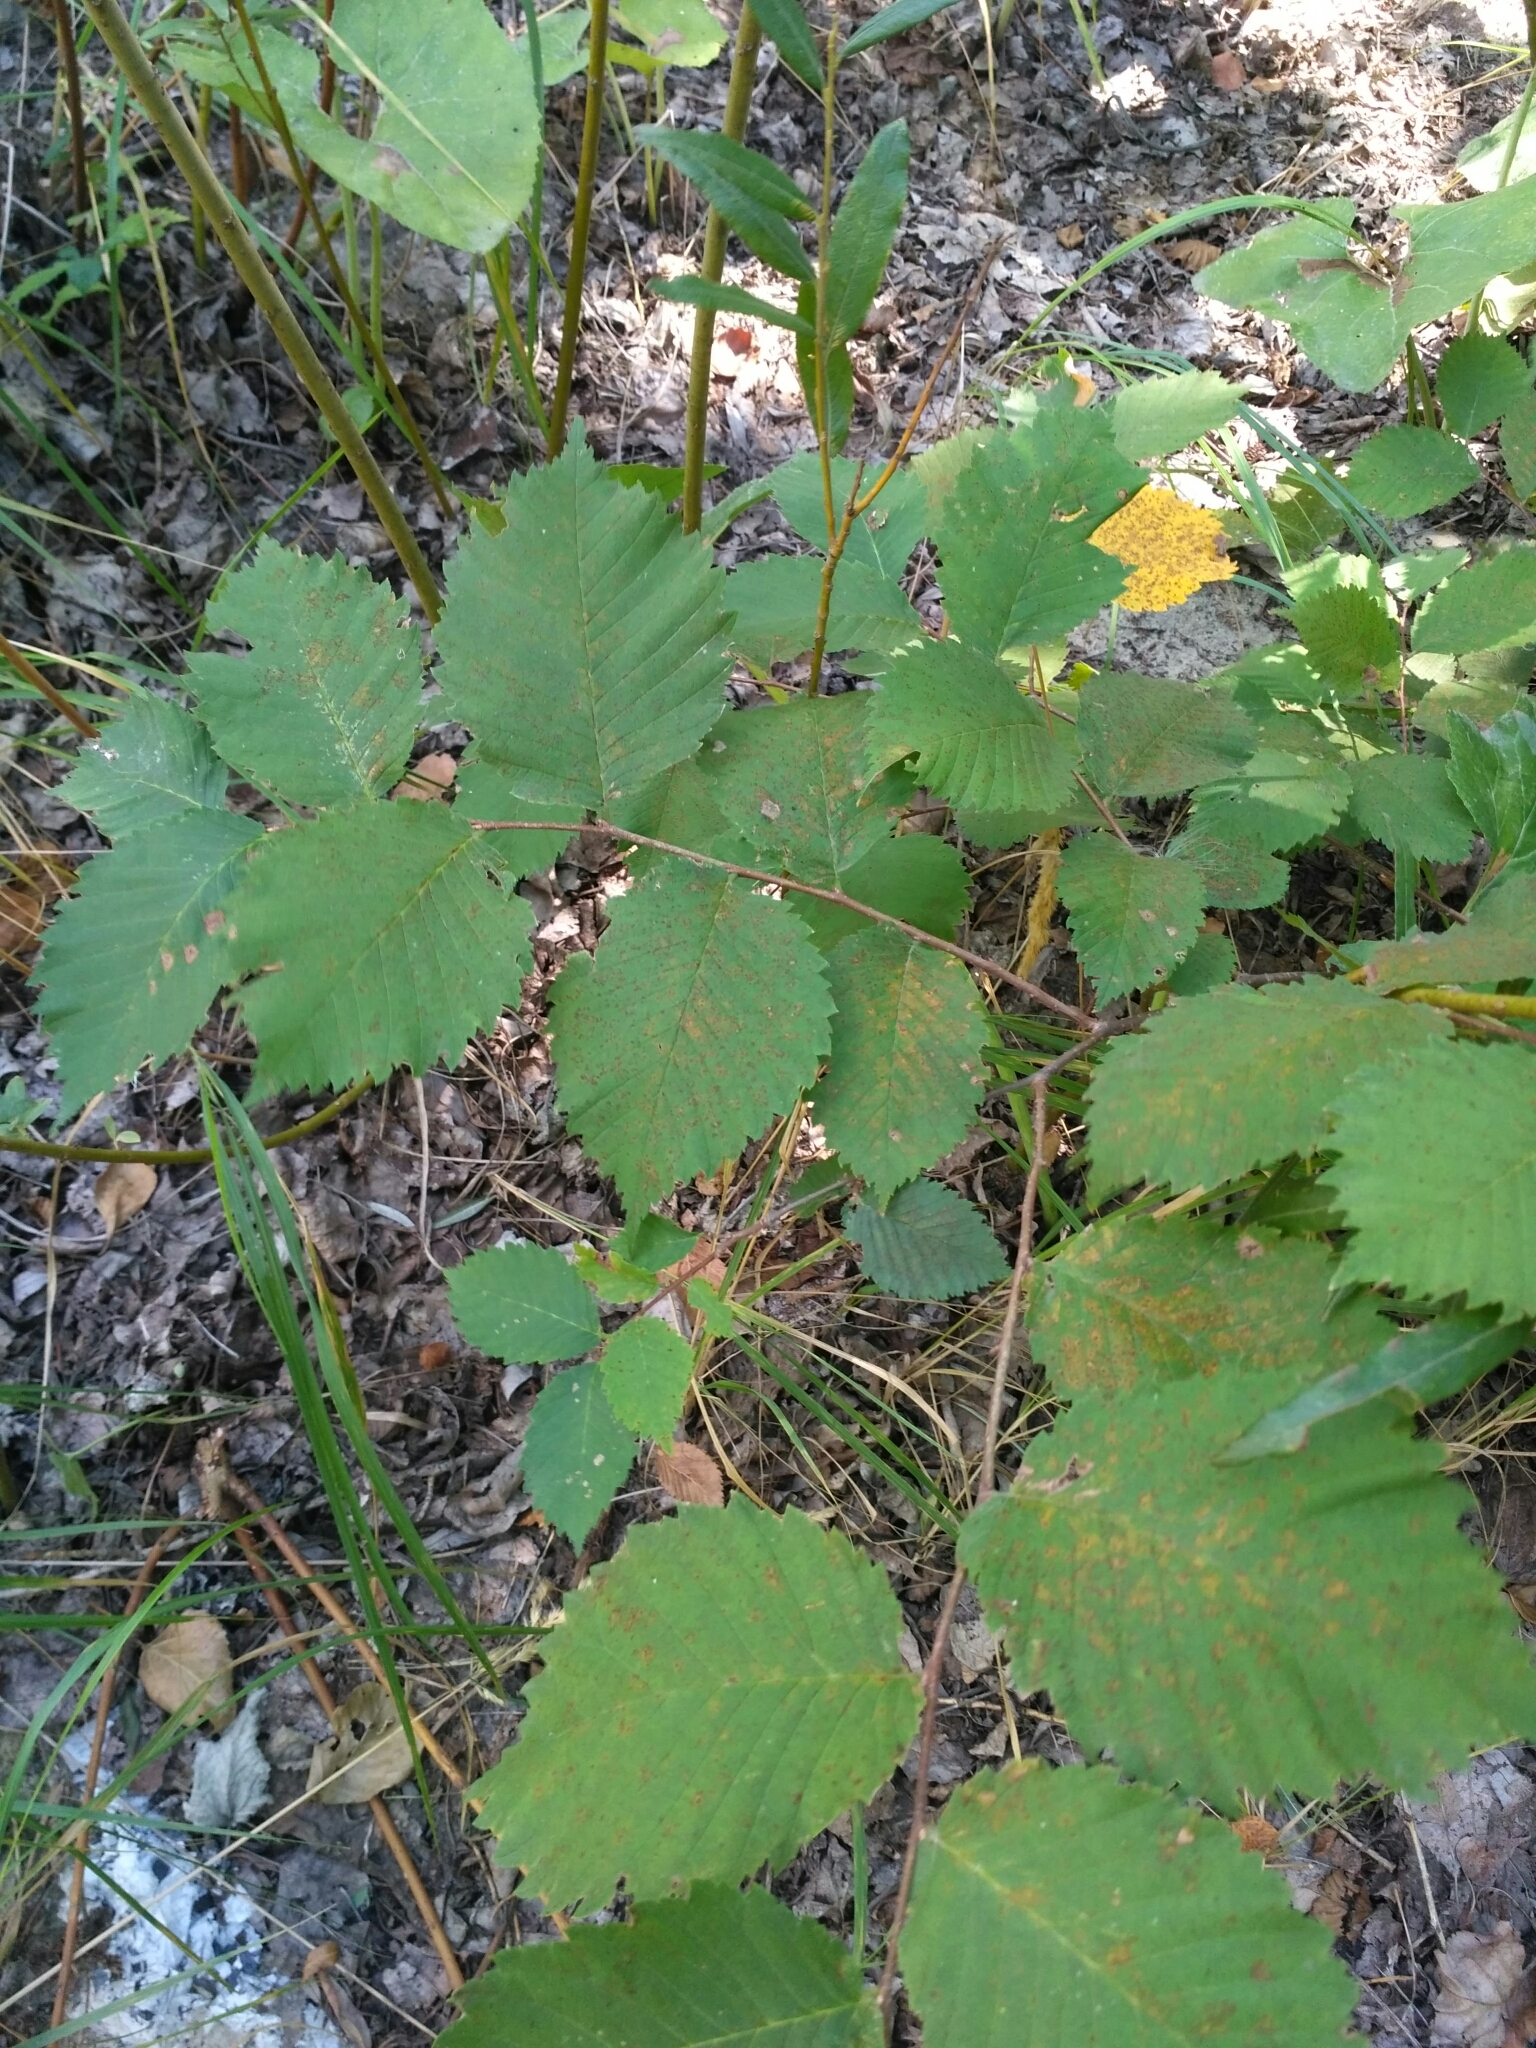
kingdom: Plantae
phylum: Tracheophyta
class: Magnoliopsida
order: Rosales
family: Ulmaceae
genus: Ulmus
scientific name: Ulmus laevis
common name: European white-elm
